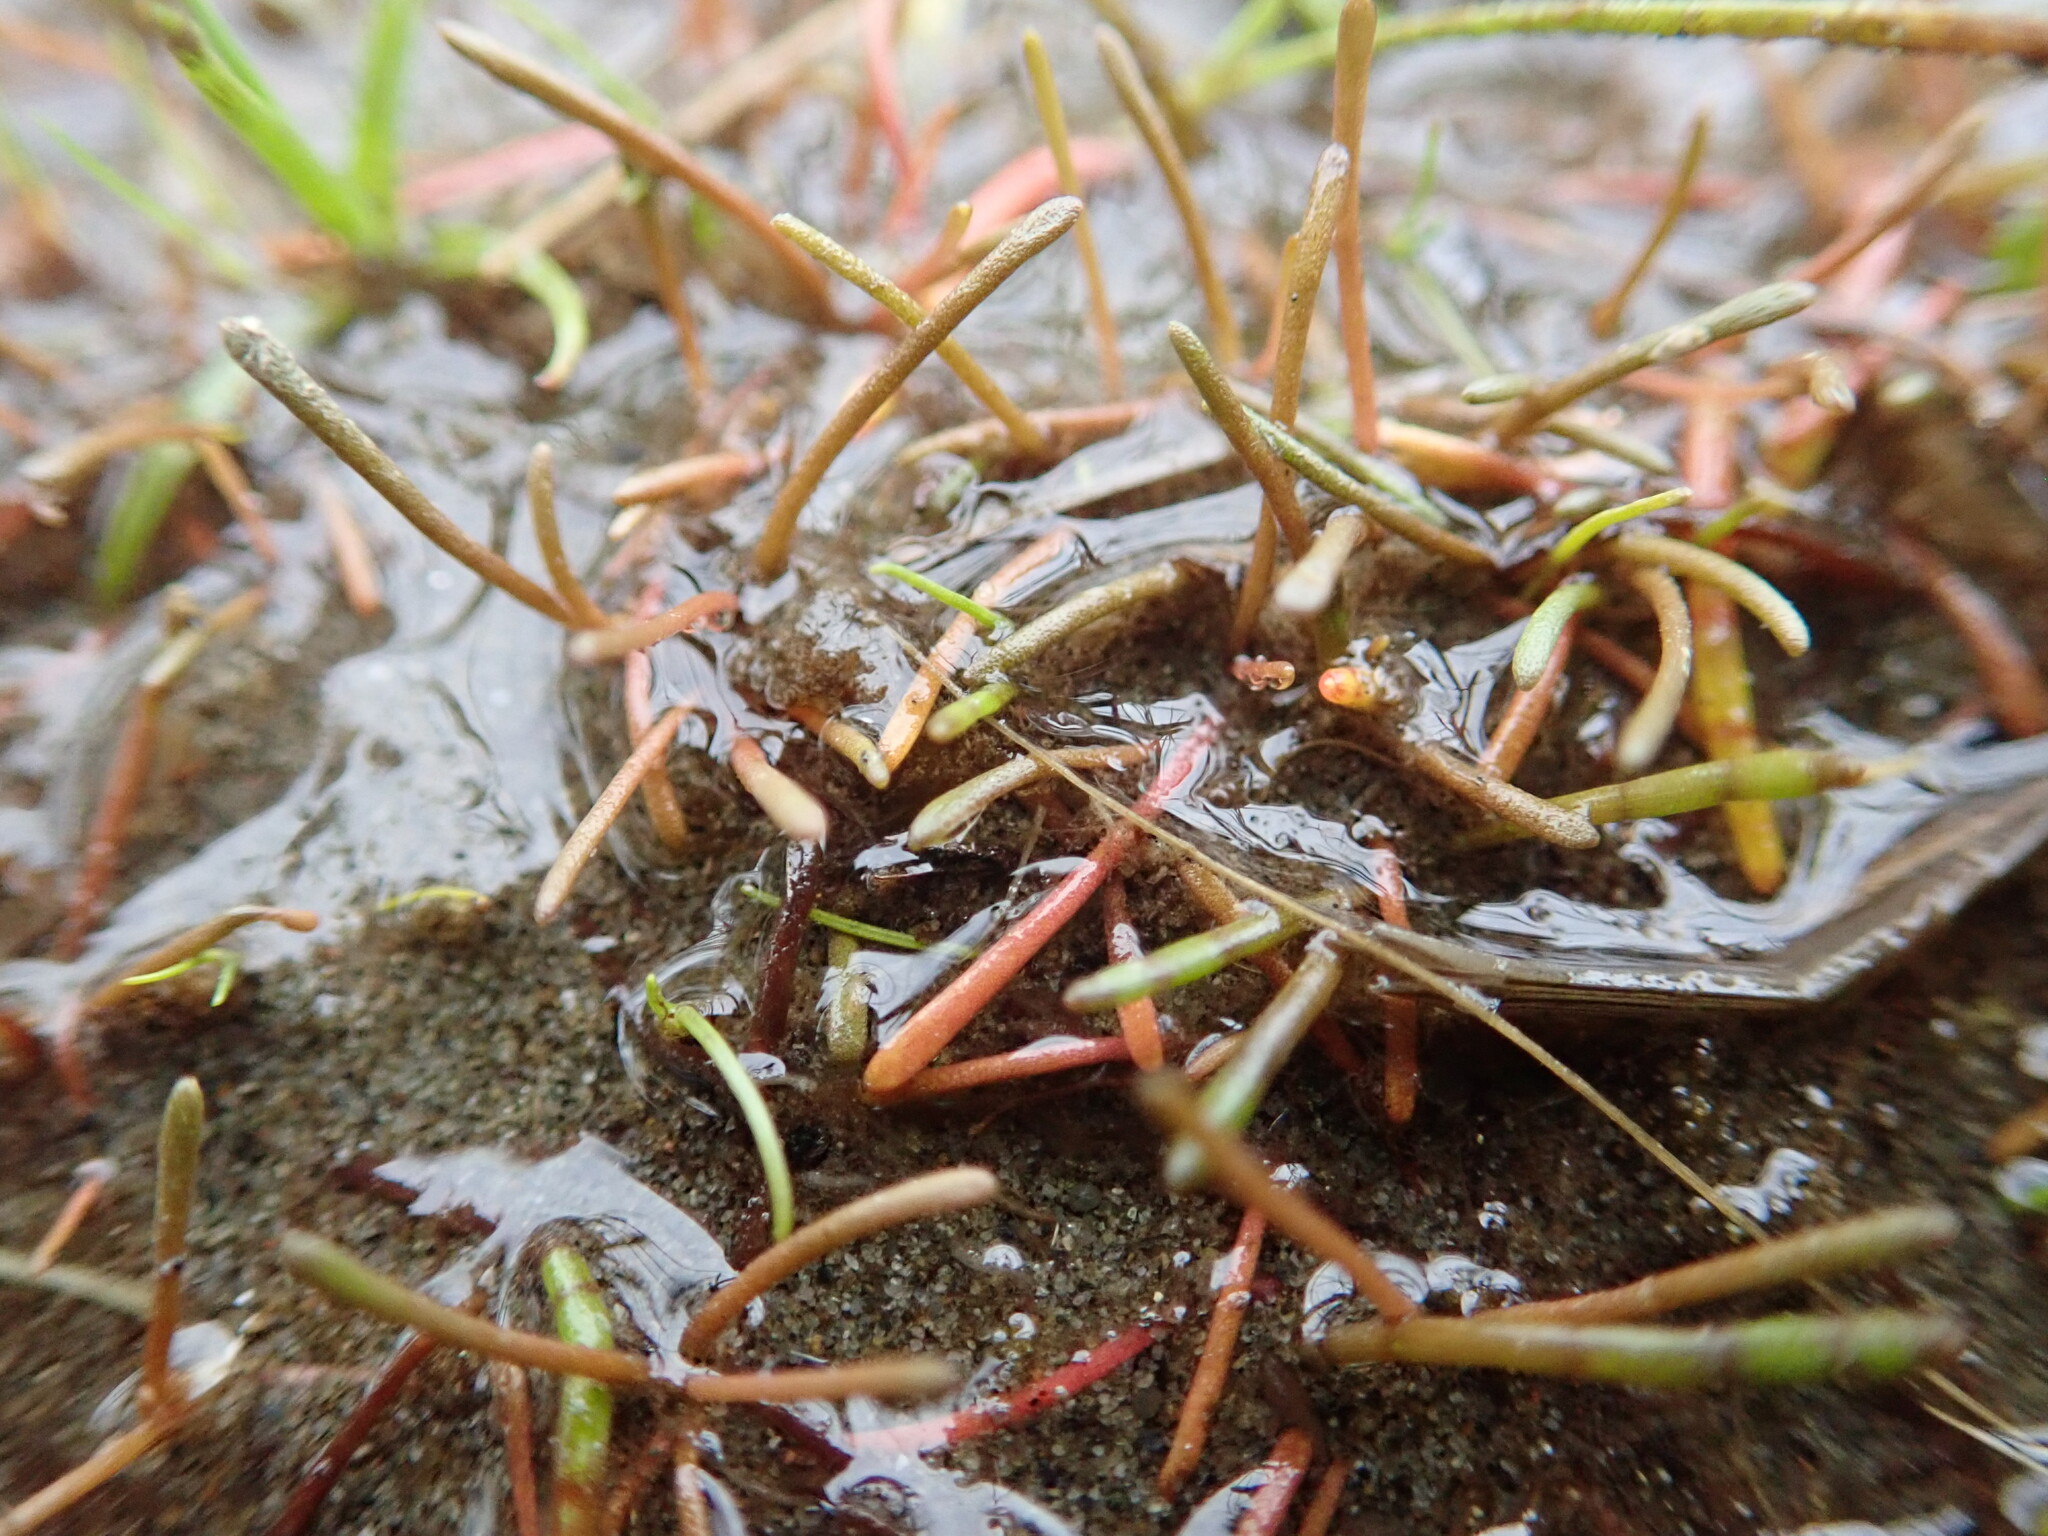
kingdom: Plantae
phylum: Tracheophyta
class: Magnoliopsida
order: Lamiales
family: Scrophulariaceae
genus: Limosella
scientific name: Limosella australis
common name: Welsh mudwort
